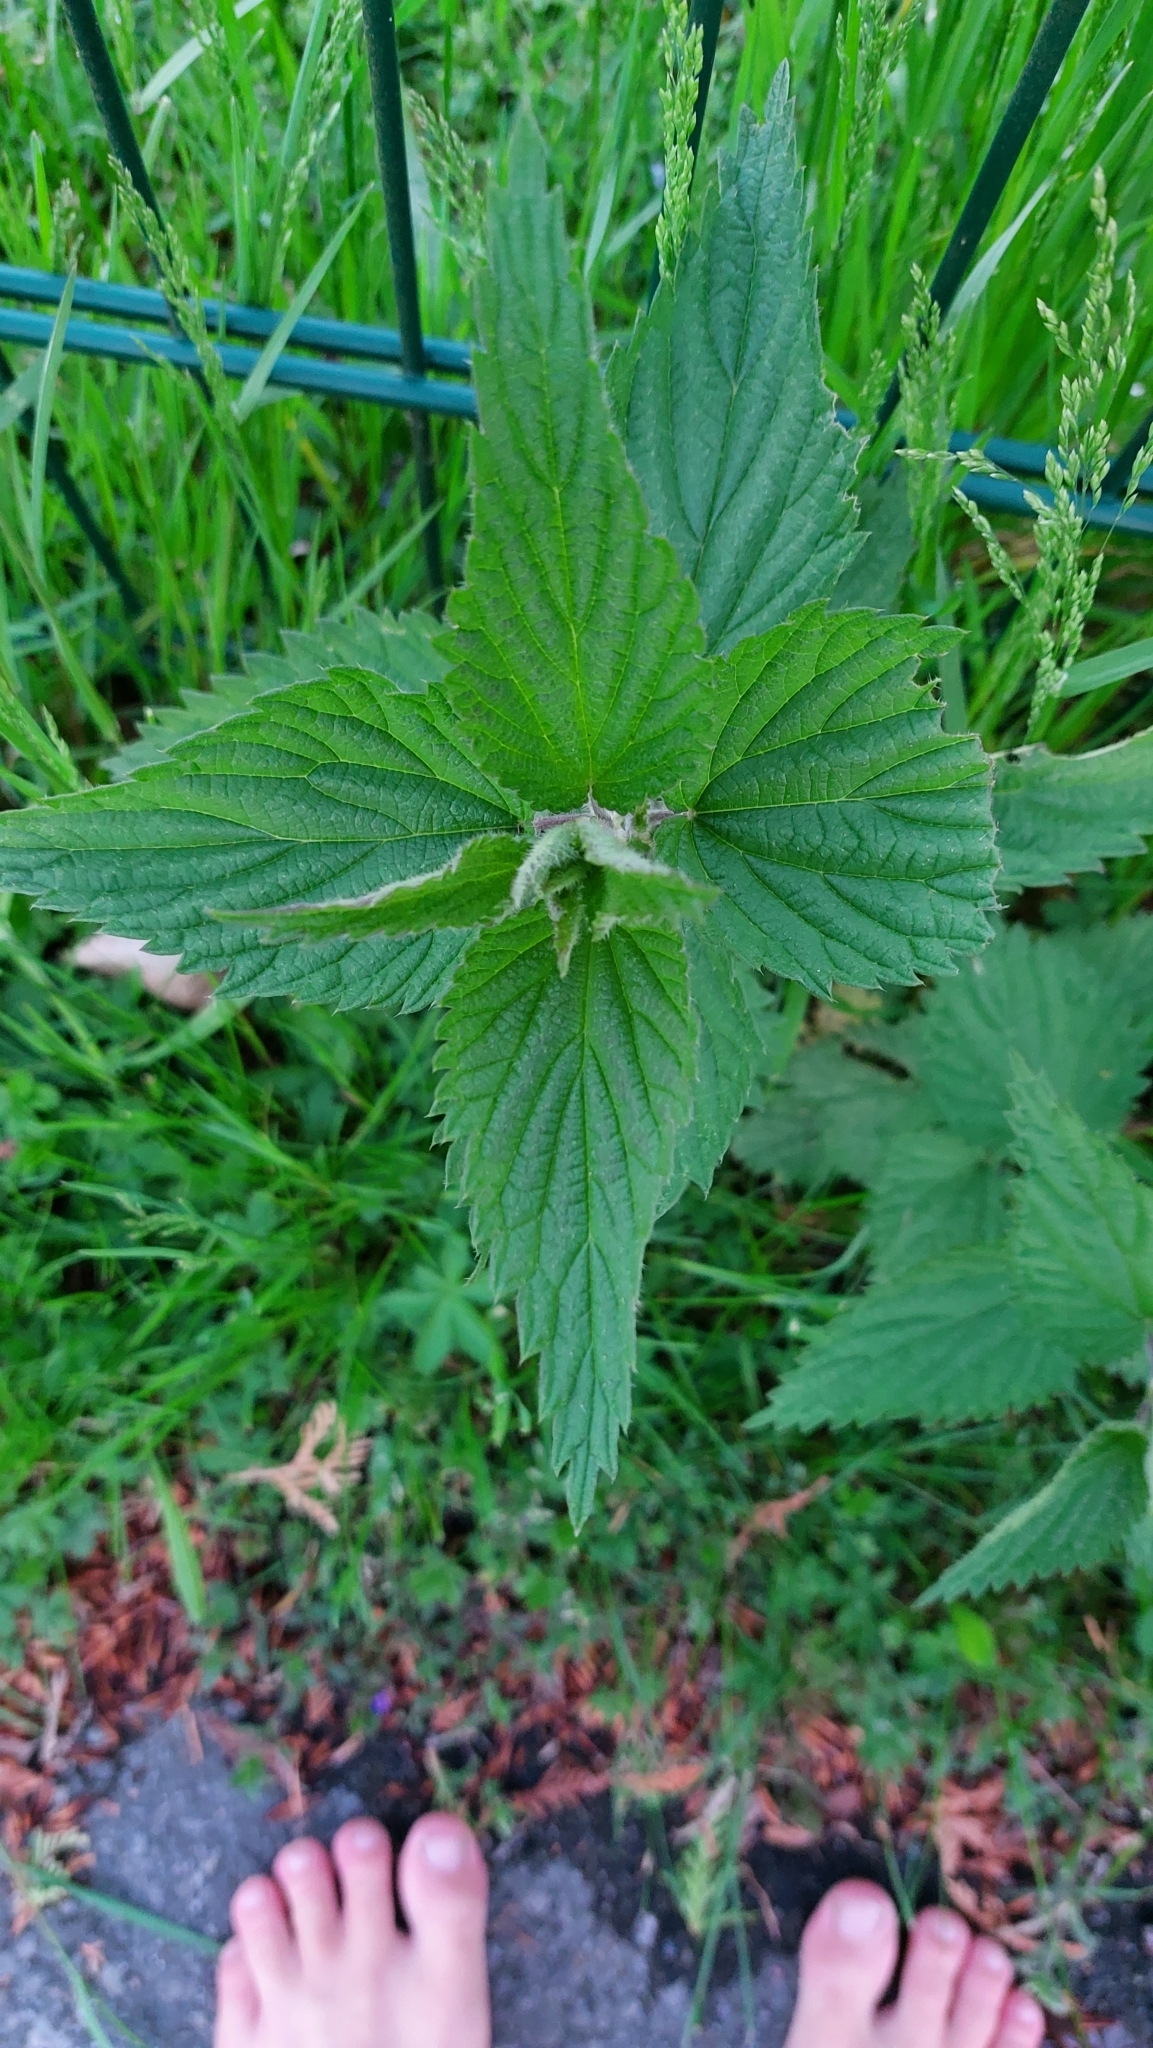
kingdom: Plantae
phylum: Tracheophyta
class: Magnoliopsida
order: Rosales
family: Urticaceae
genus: Urtica
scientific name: Urtica dioica
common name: Common nettle
